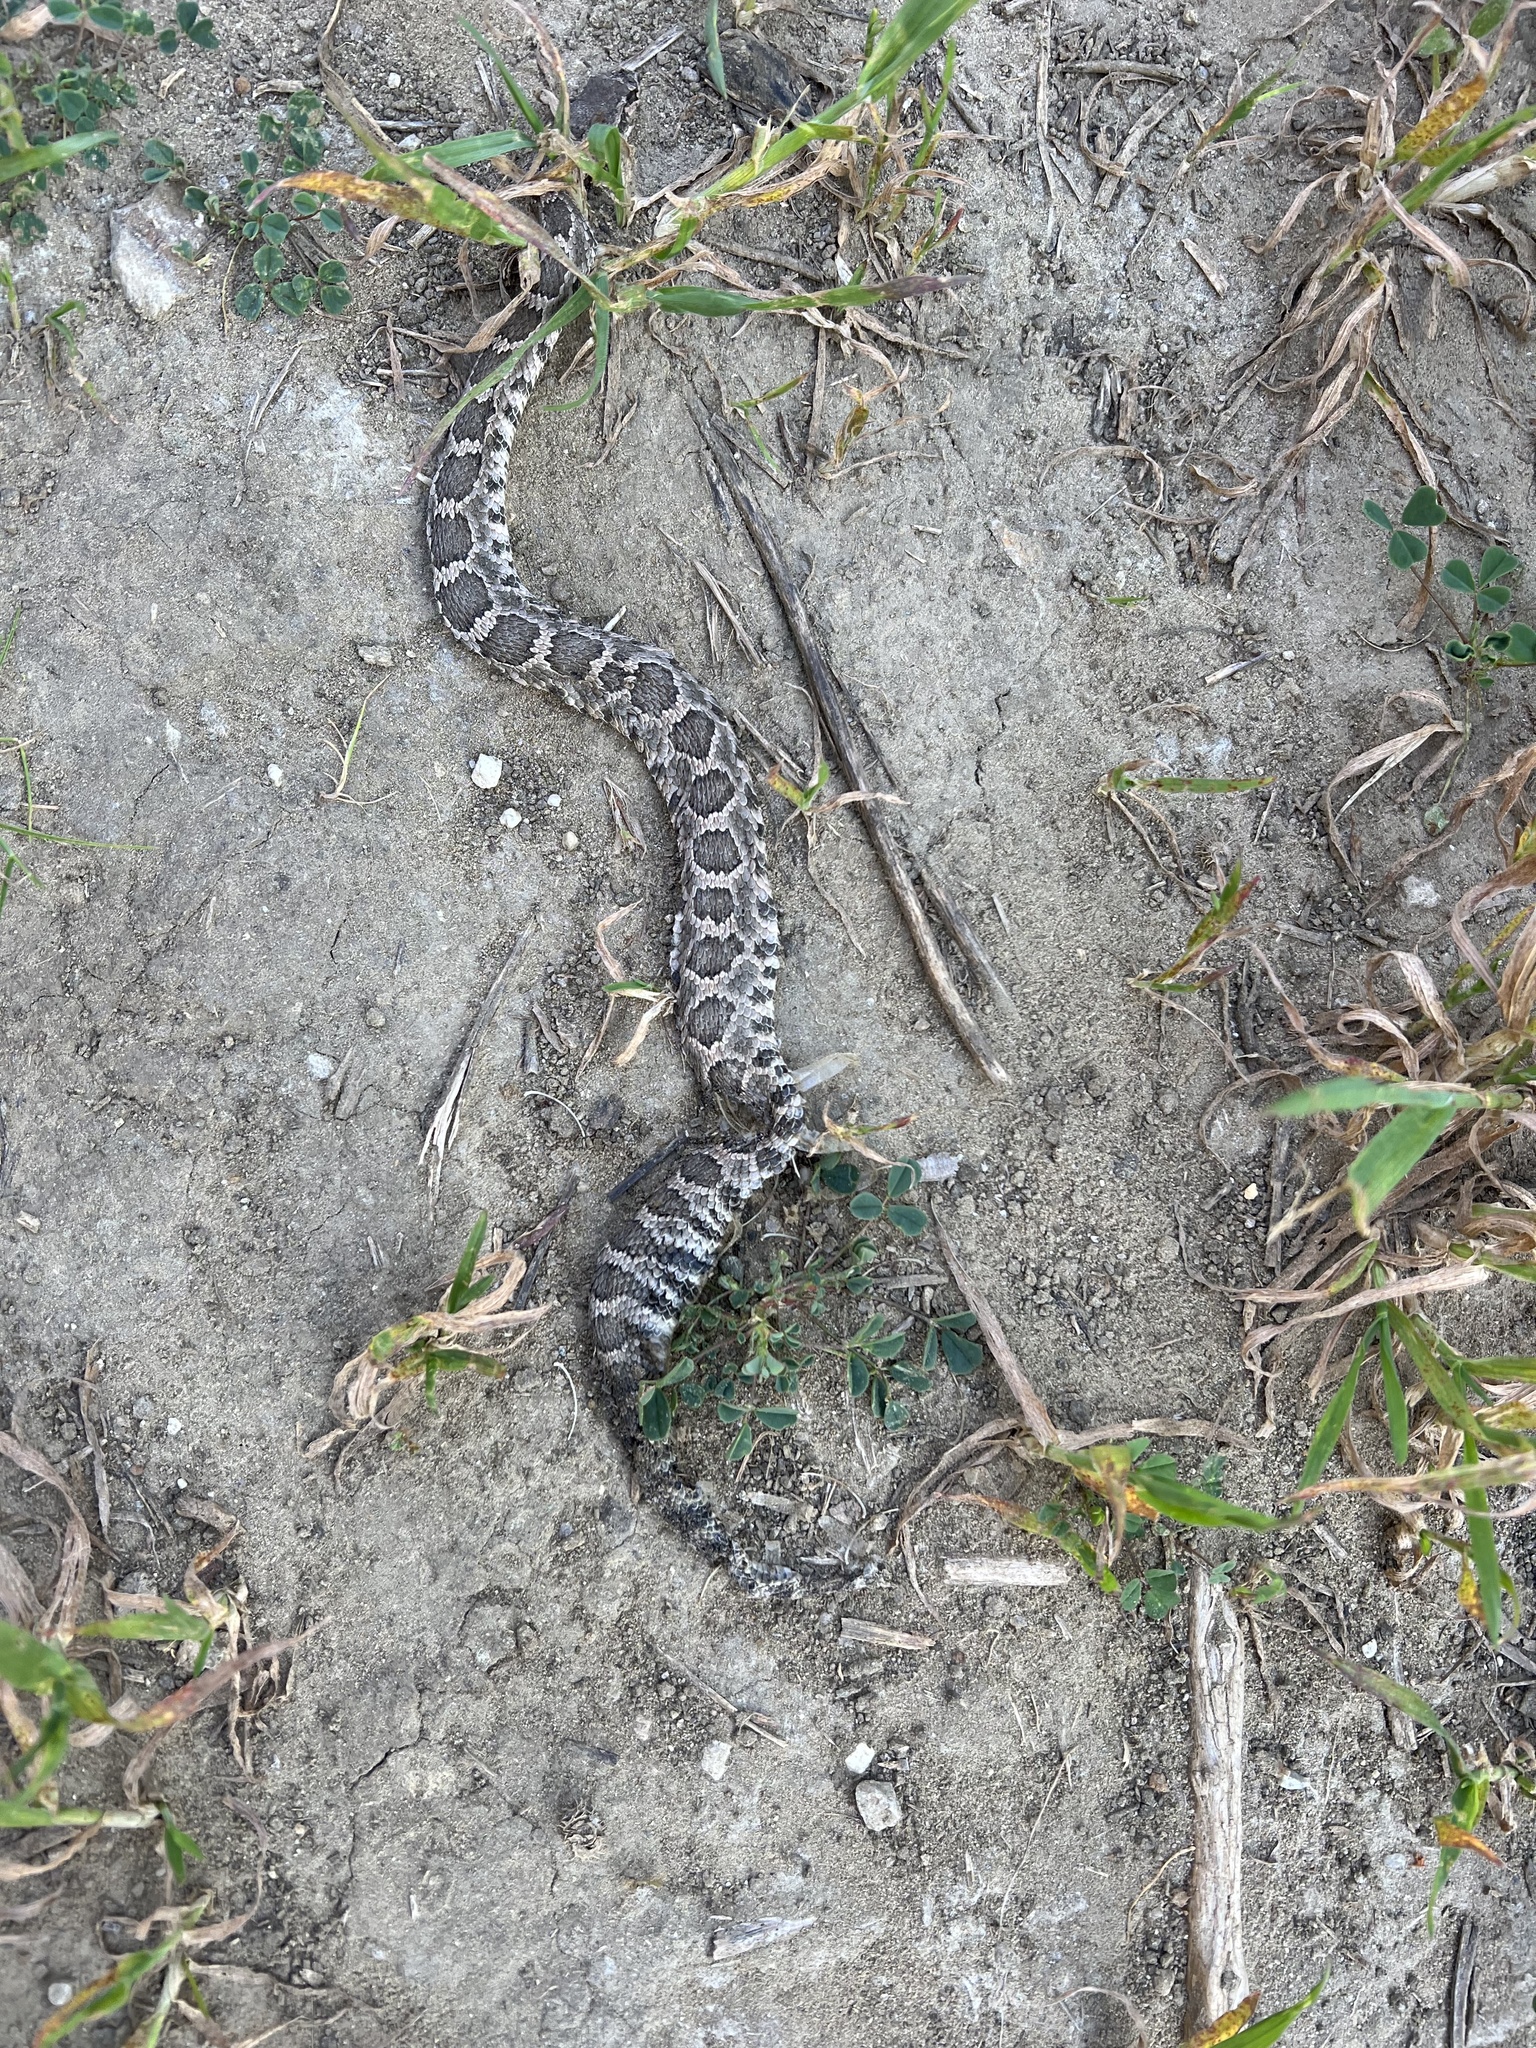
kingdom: Animalia
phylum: Chordata
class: Squamata
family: Viperidae
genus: Crotalus
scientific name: Crotalus oreganus
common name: Abyssus
